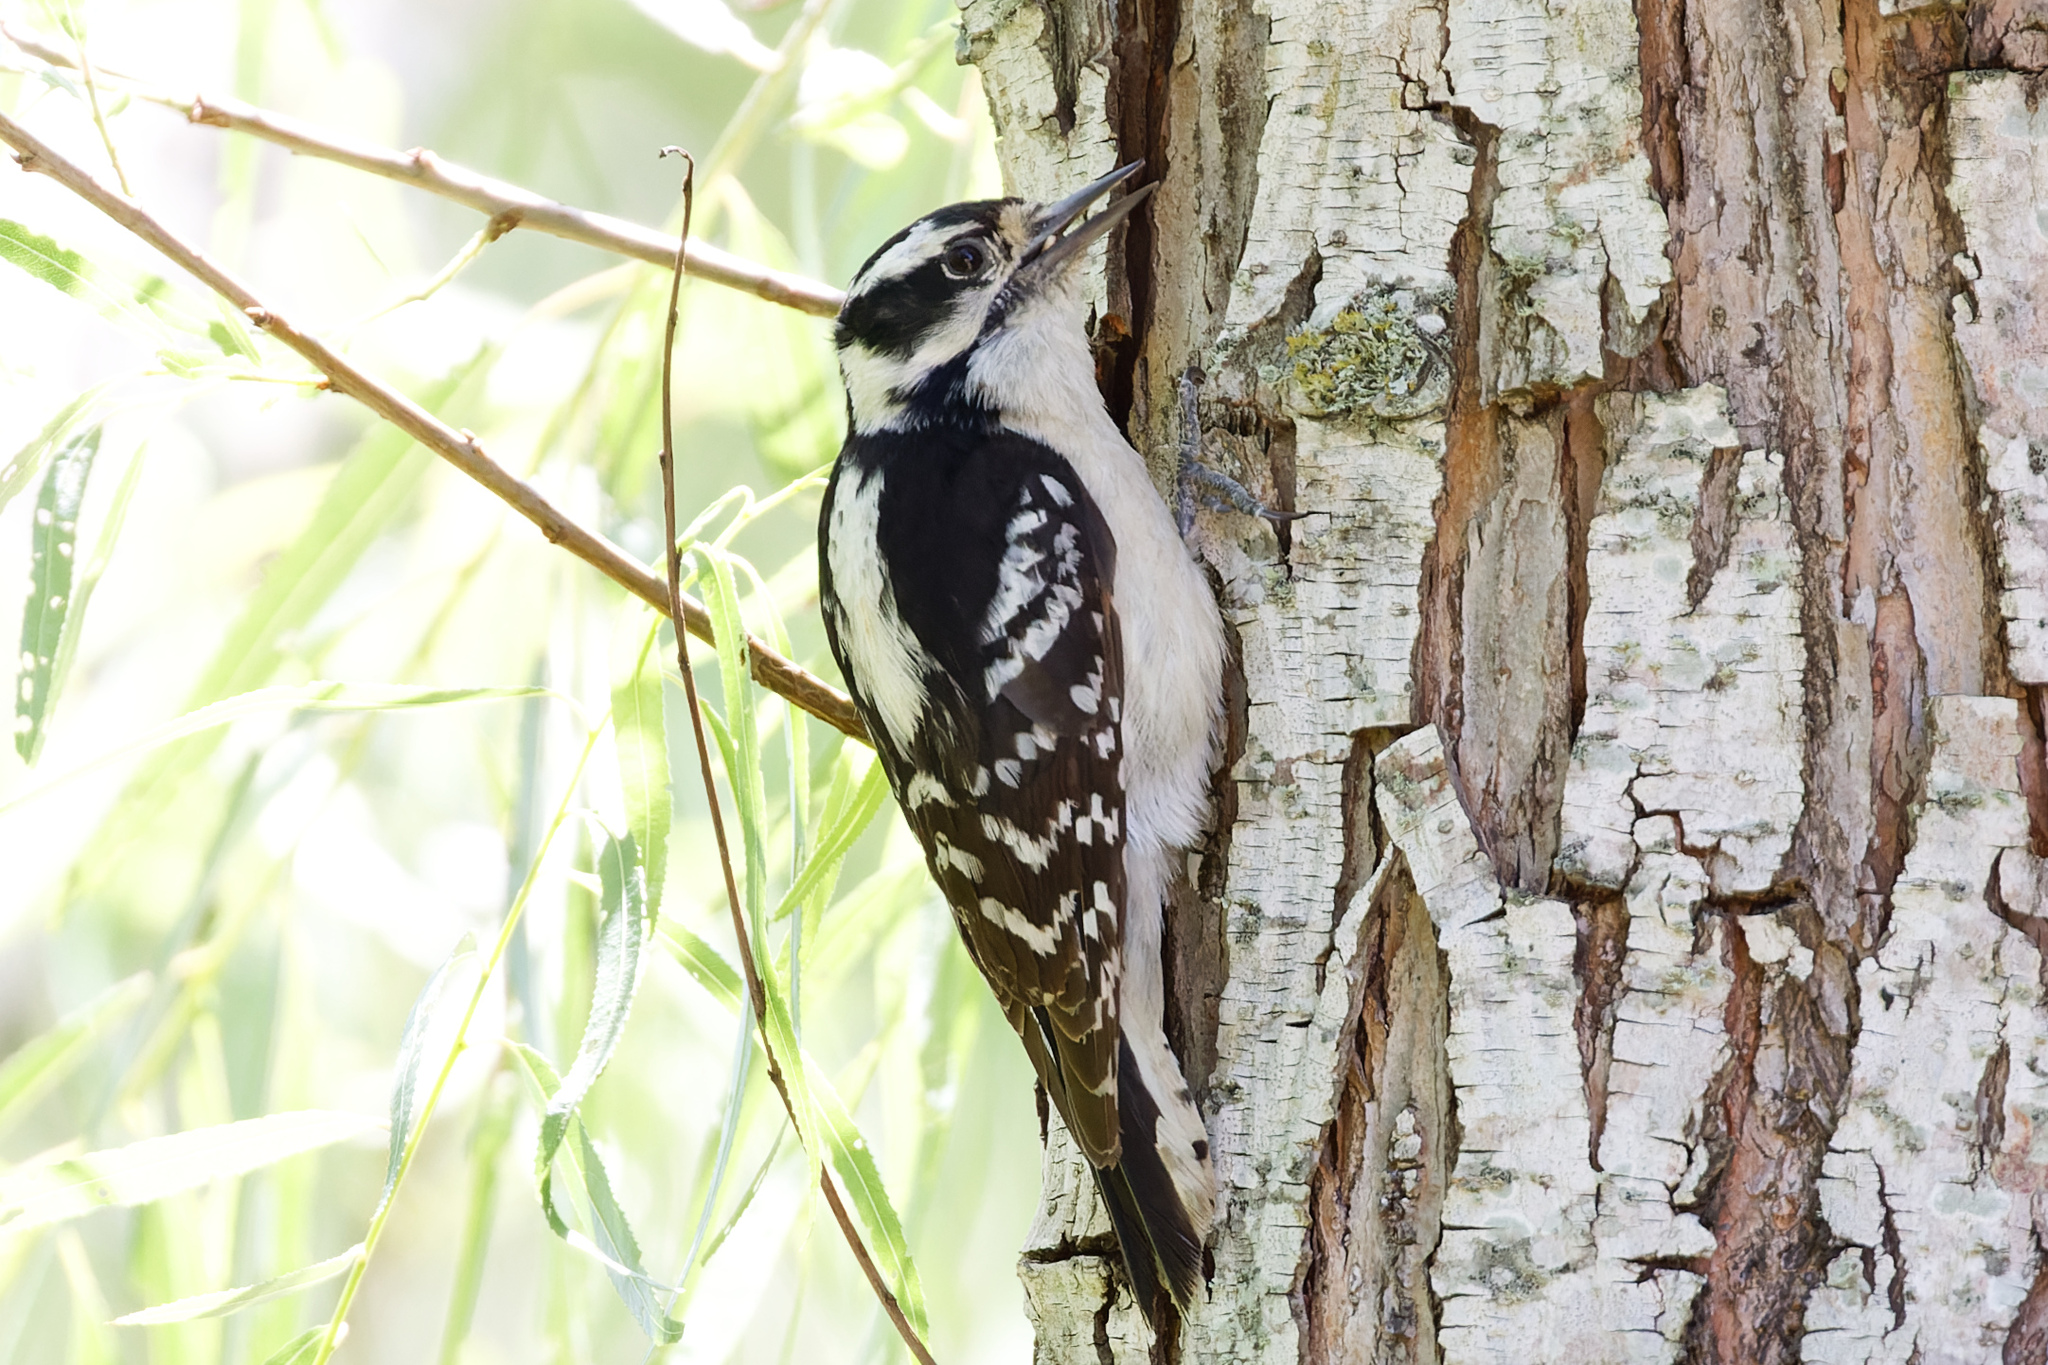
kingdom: Animalia
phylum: Chordata
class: Aves
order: Piciformes
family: Picidae
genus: Dryobates
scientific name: Dryobates pubescens
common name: Downy woodpecker
